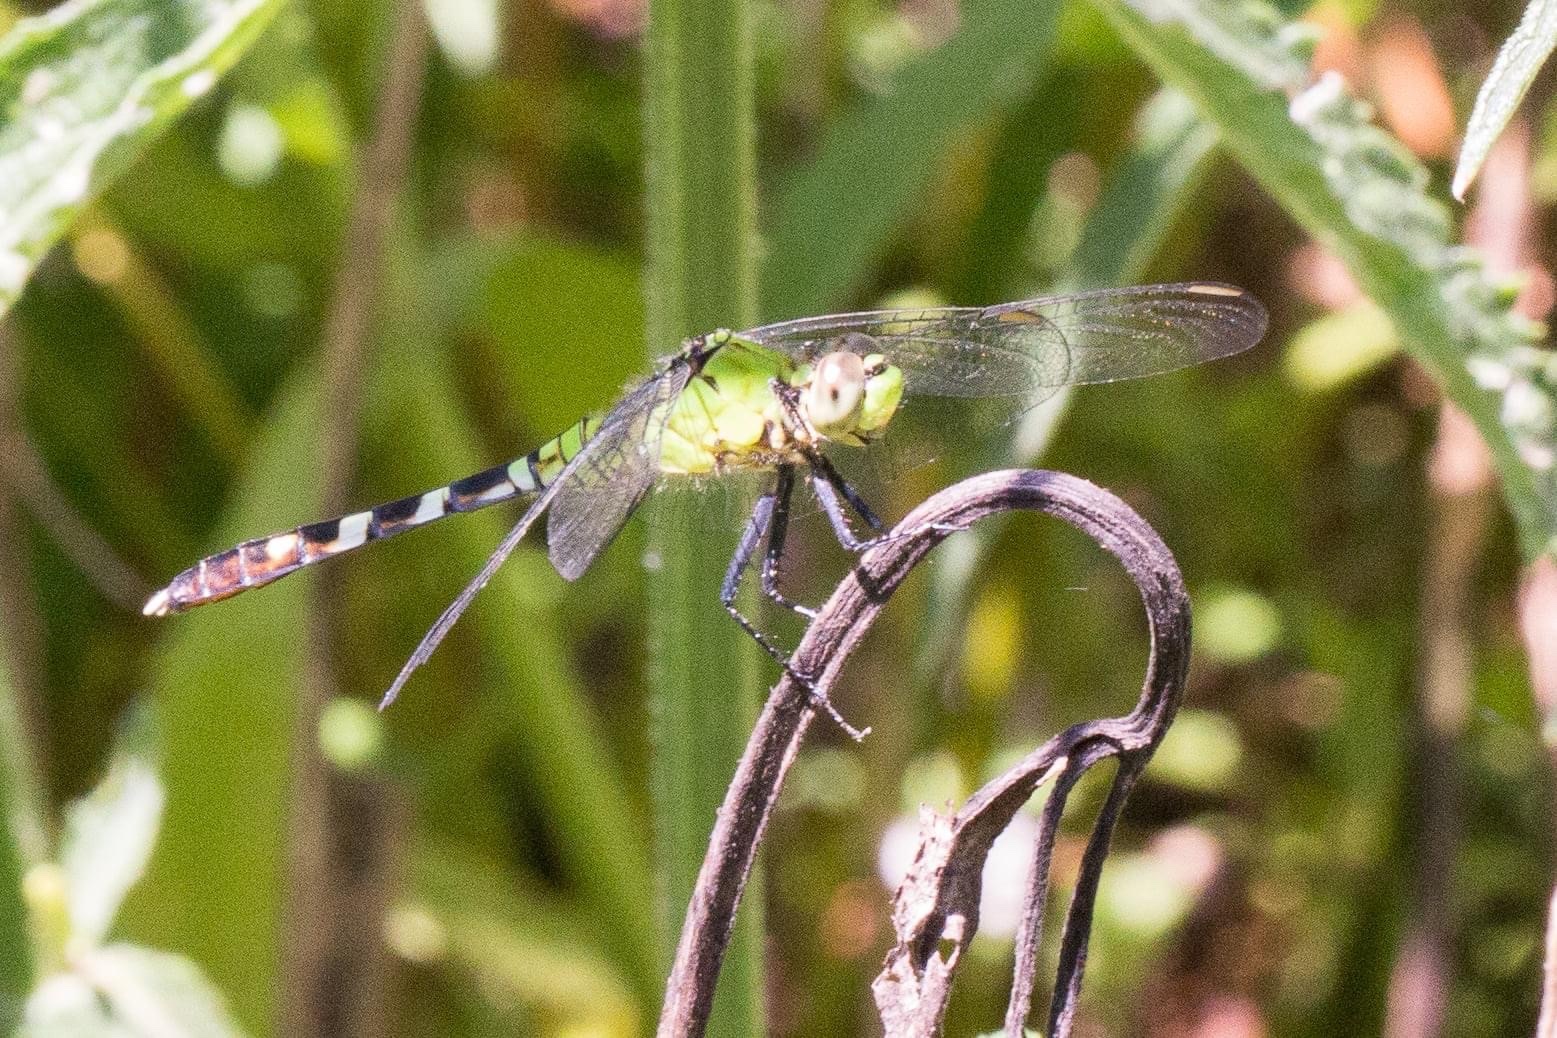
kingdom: Animalia
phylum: Arthropoda
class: Insecta
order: Odonata
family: Libellulidae
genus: Erythemis
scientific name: Erythemis simplicicollis
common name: Eastern pondhawk
